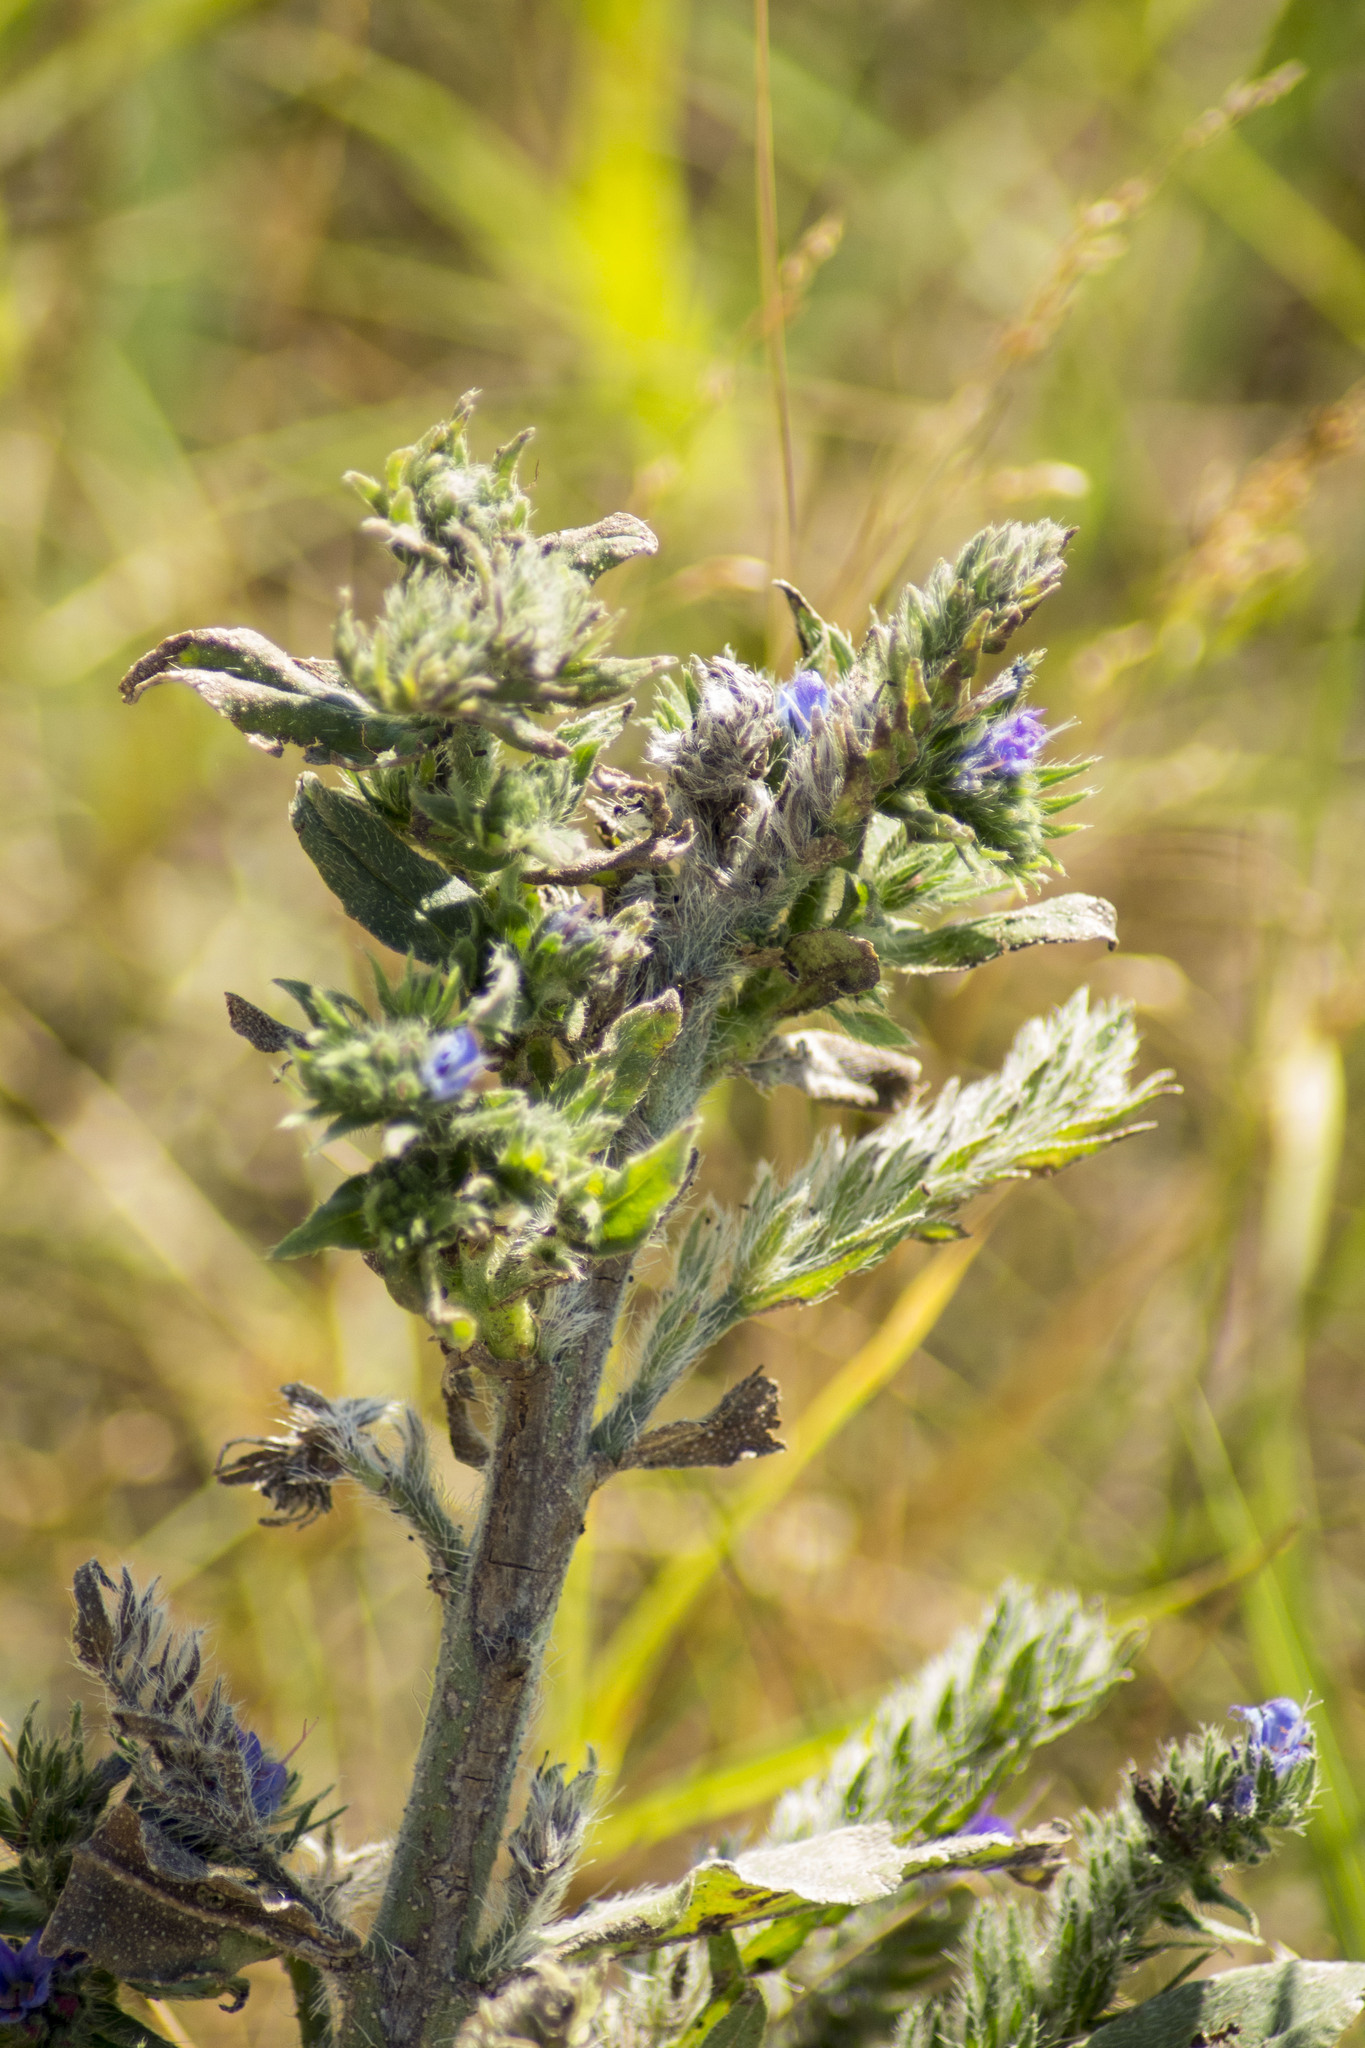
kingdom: Plantae
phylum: Tracheophyta
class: Magnoliopsida
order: Boraginales
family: Boraginaceae
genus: Echium
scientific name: Echium vulgare
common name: Common viper's bugloss
